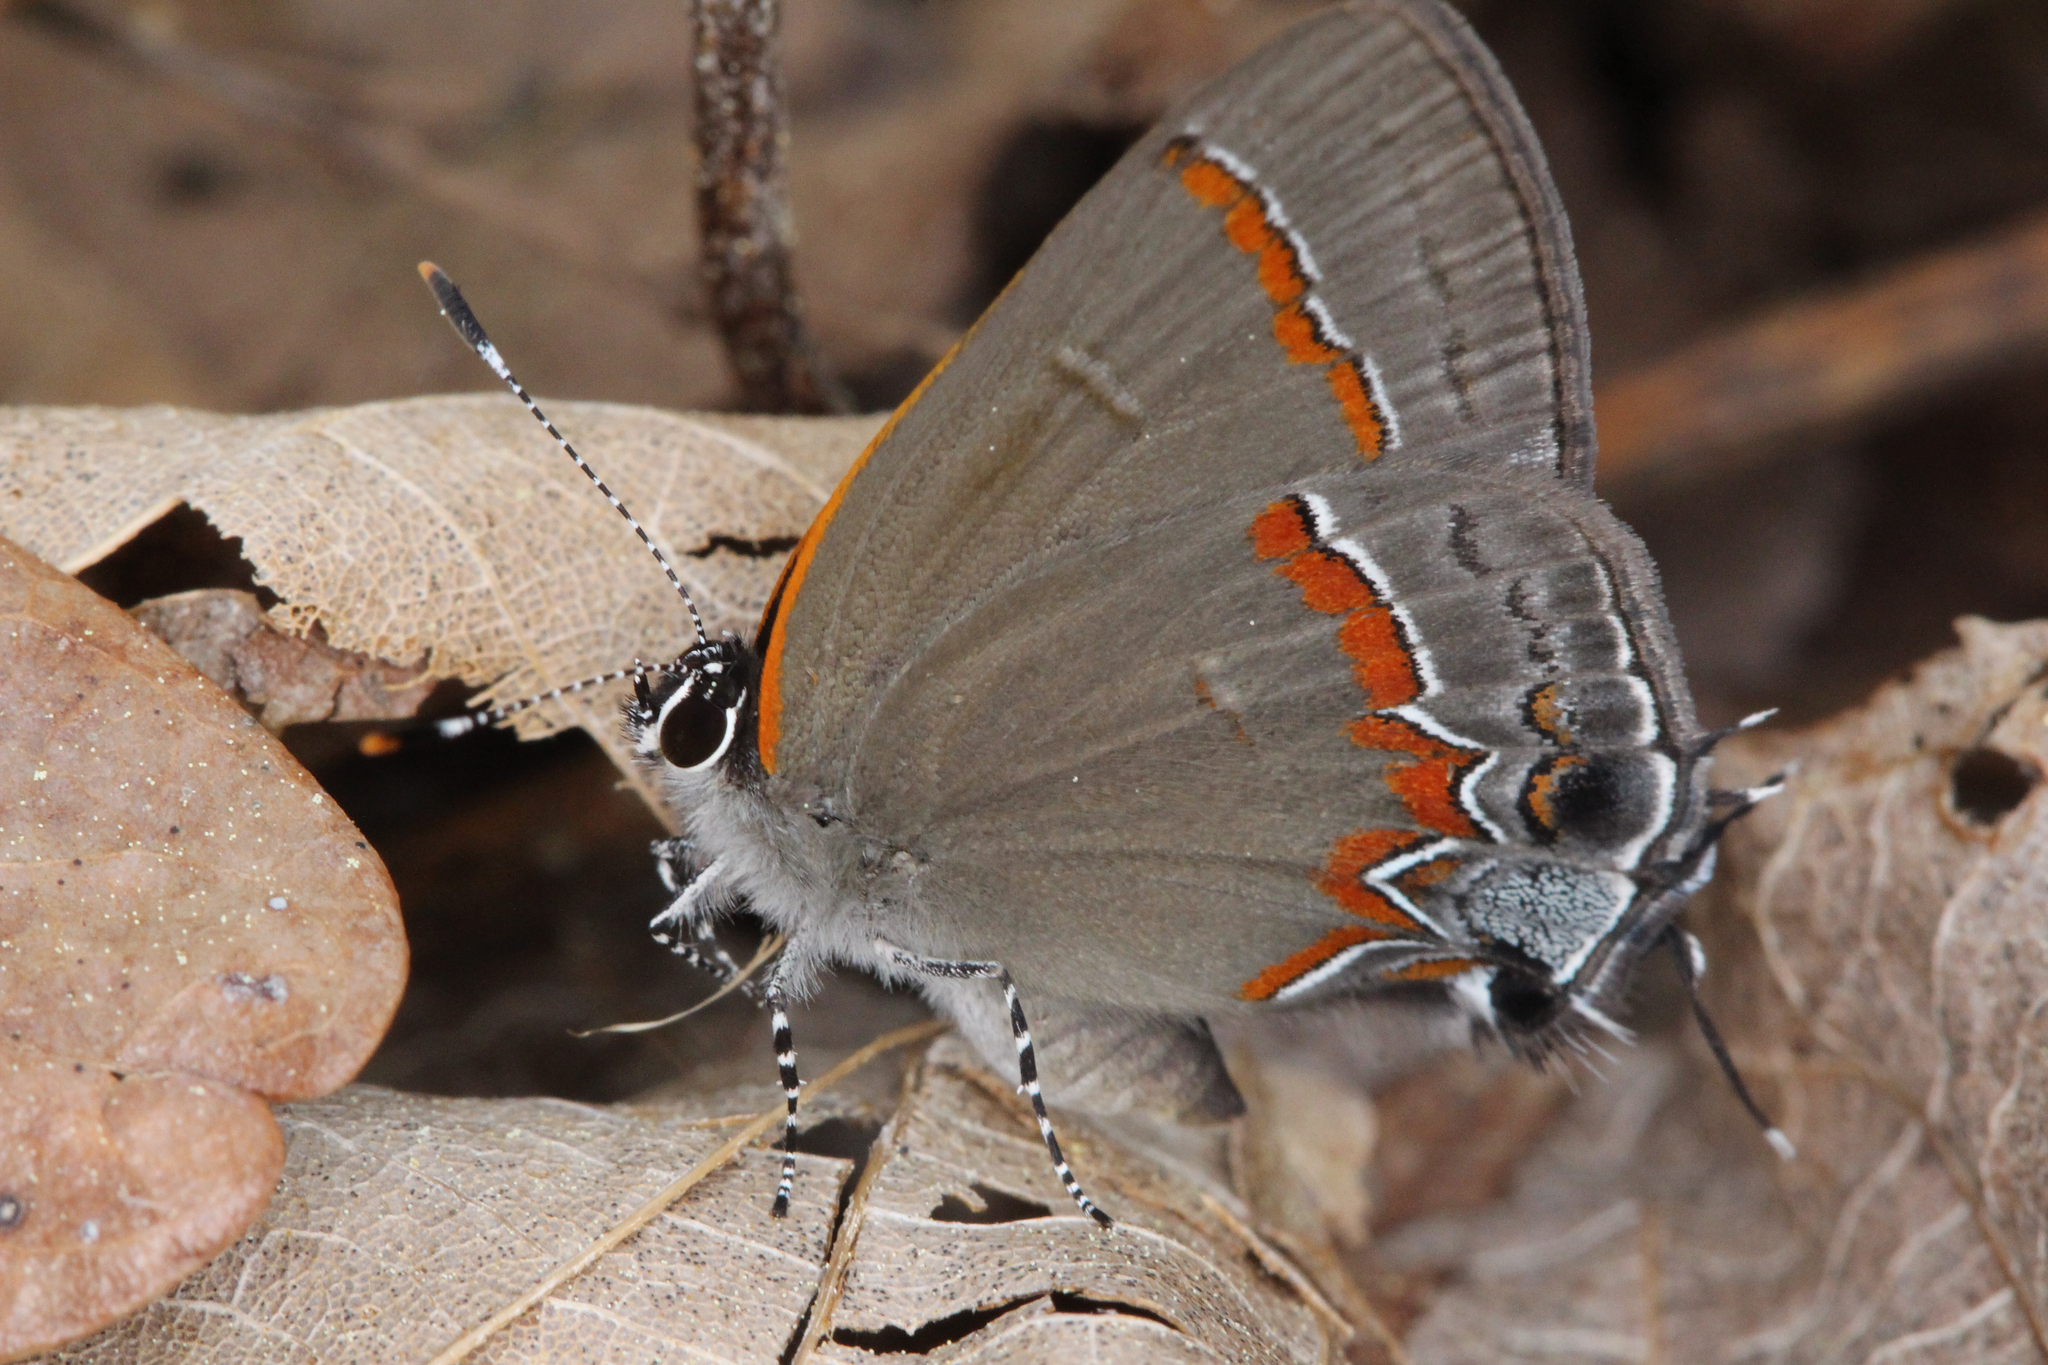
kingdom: Animalia
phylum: Arthropoda
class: Insecta
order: Lepidoptera
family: Lycaenidae
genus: Calycopis
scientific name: Calycopis cecrops
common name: Red-banded hairstreak
